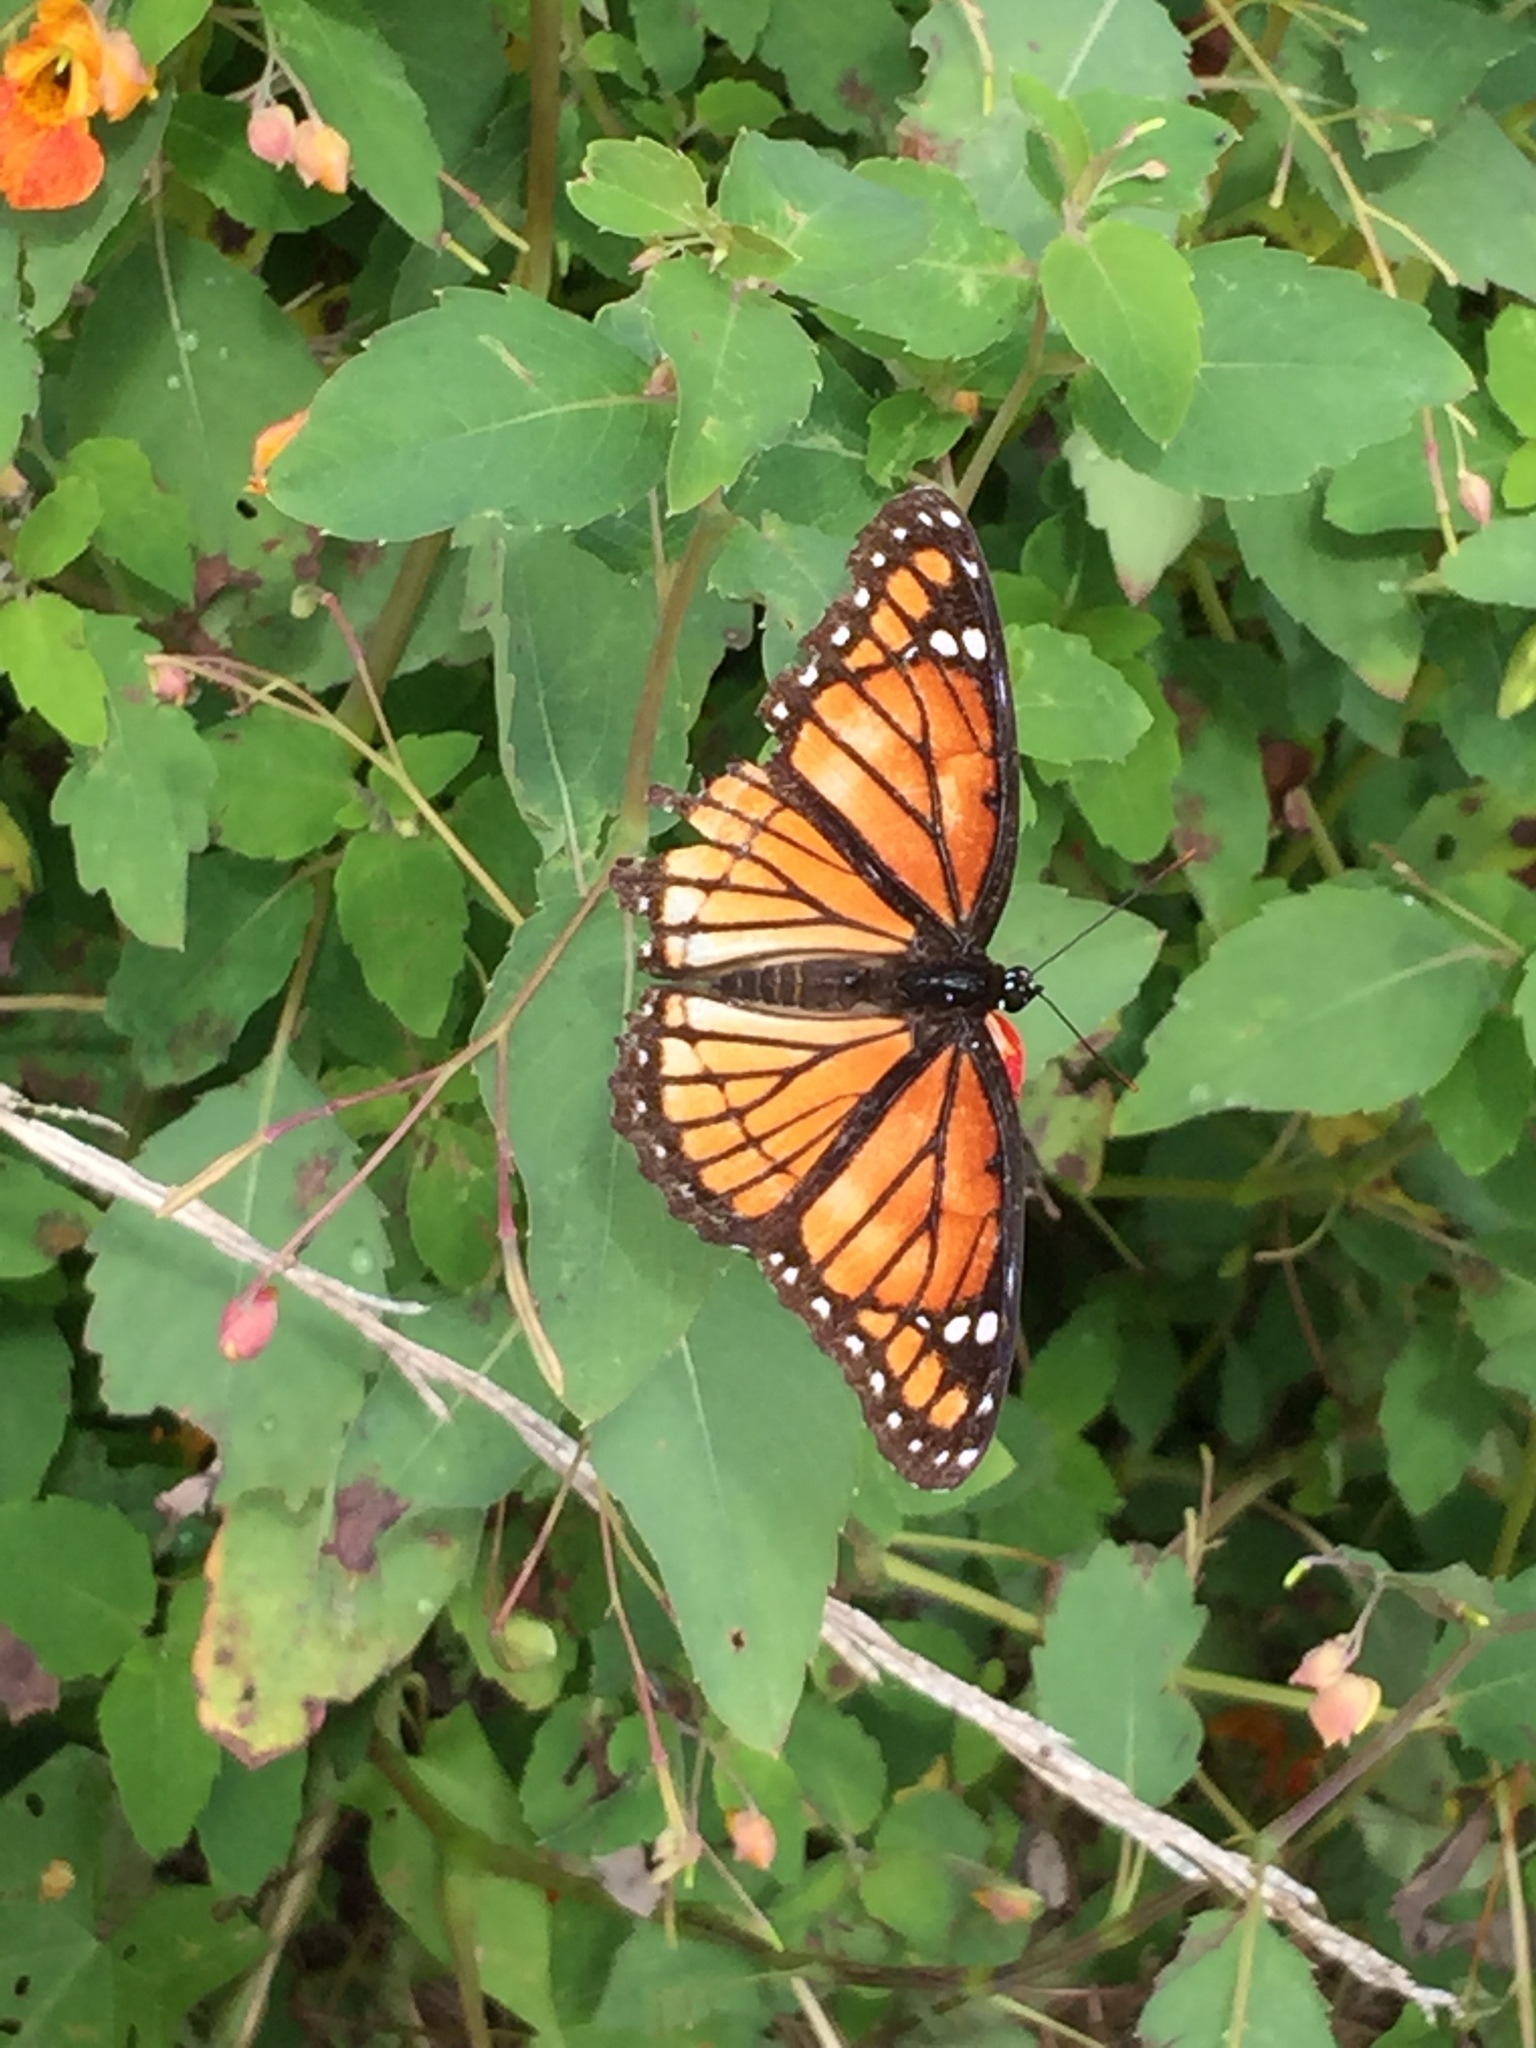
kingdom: Animalia
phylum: Arthropoda
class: Insecta
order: Lepidoptera
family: Nymphalidae
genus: Limenitis
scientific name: Limenitis archippus
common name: Viceroy
